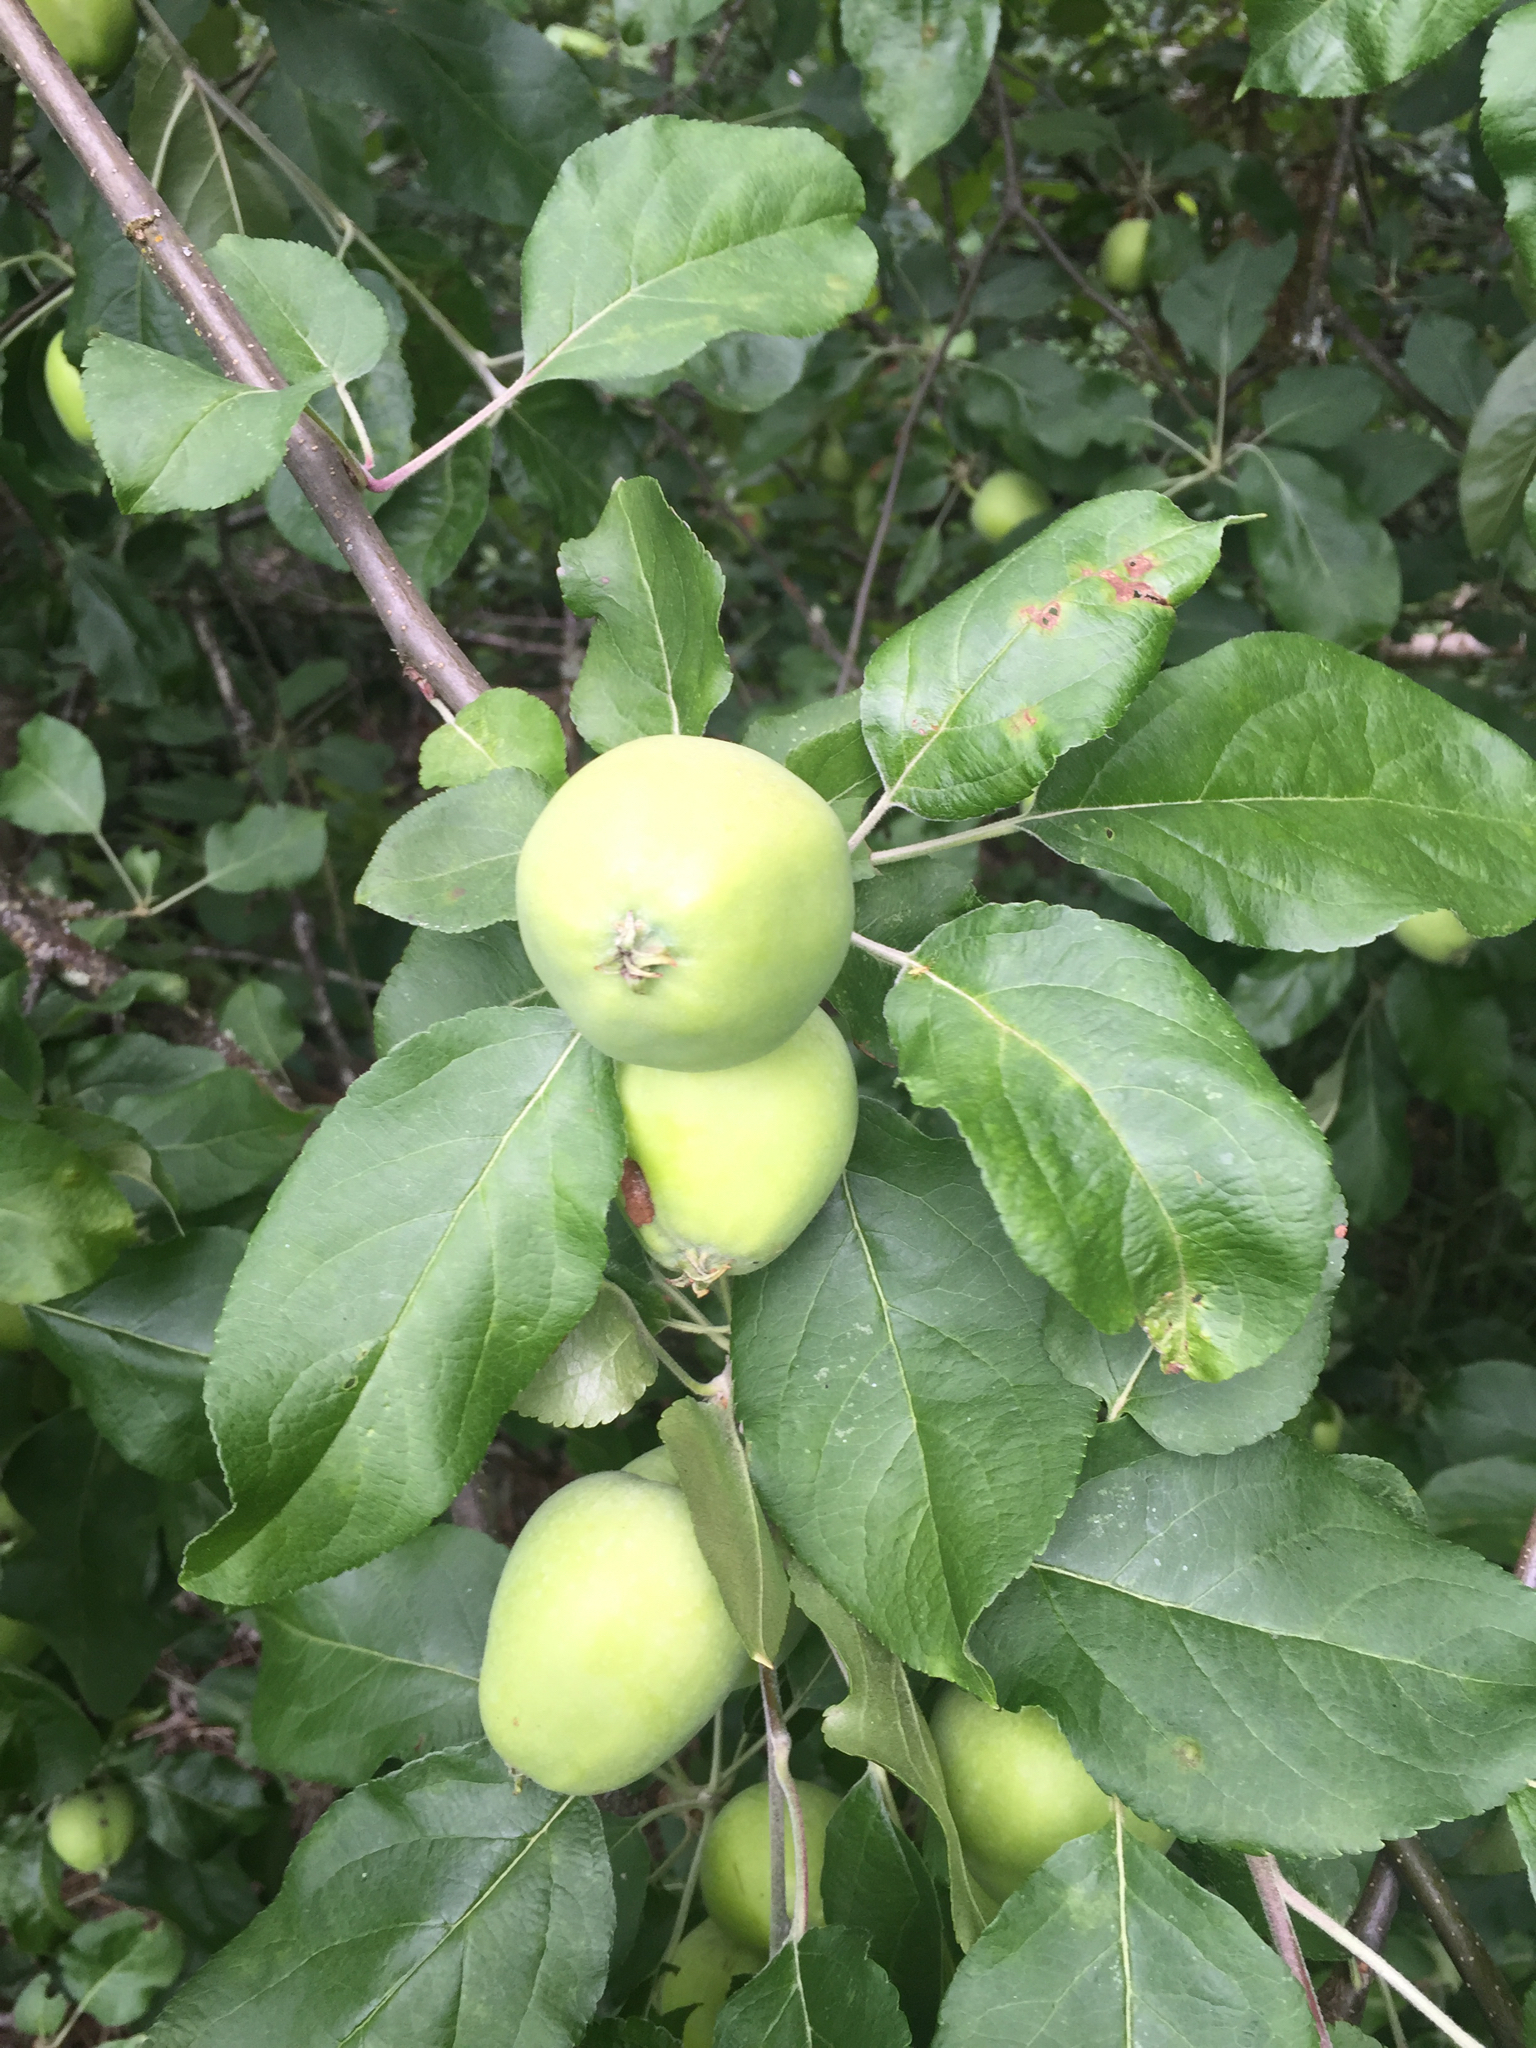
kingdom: Plantae
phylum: Tracheophyta
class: Magnoliopsida
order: Rosales
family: Rosaceae
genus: Malus
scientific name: Malus domestica
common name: Apple
